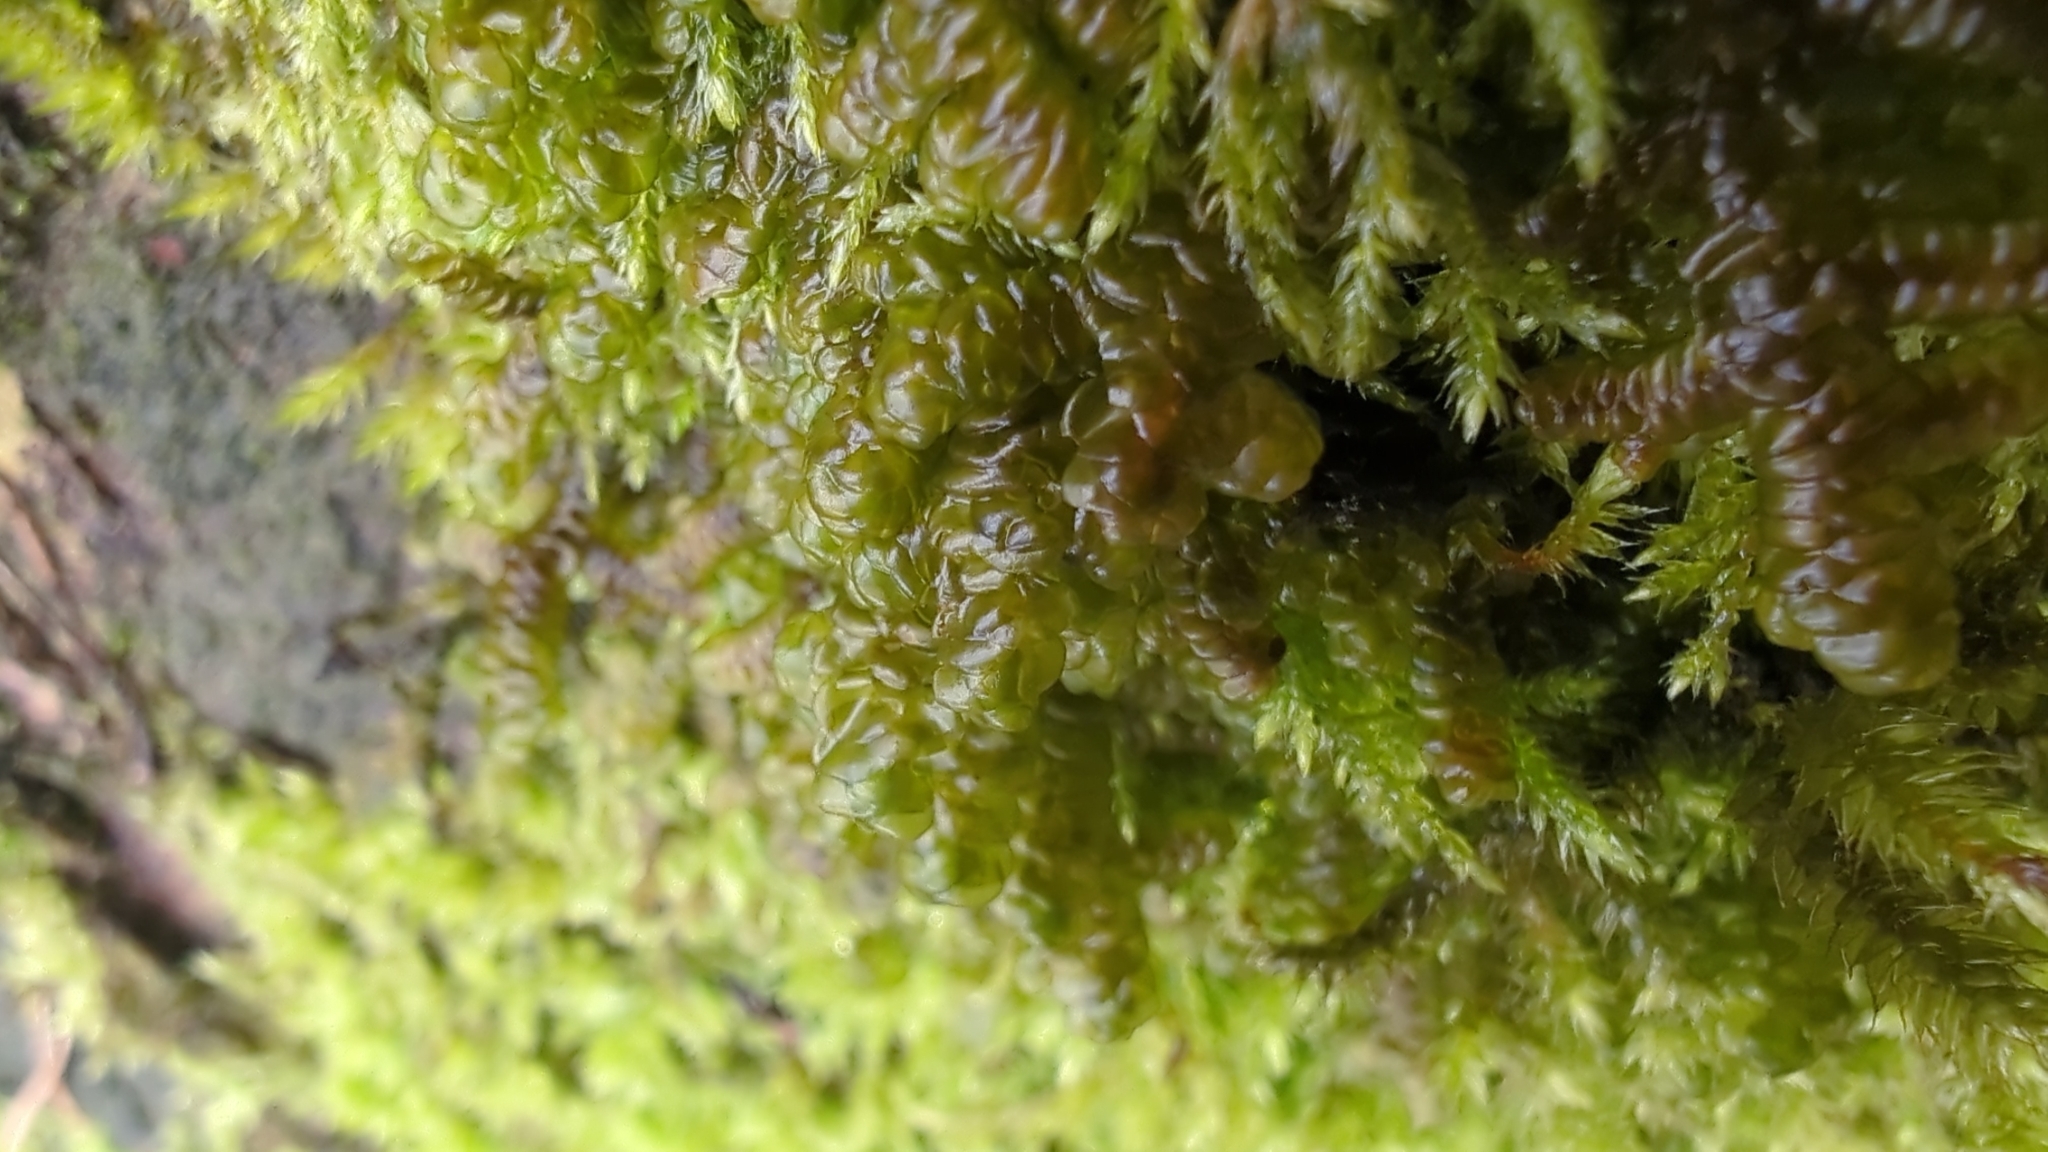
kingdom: Plantae
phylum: Marchantiophyta
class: Jungermanniopsida
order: Porellales
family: Porellaceae
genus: Porella
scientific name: Porella navicularis
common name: Tree ruffle liverwort
